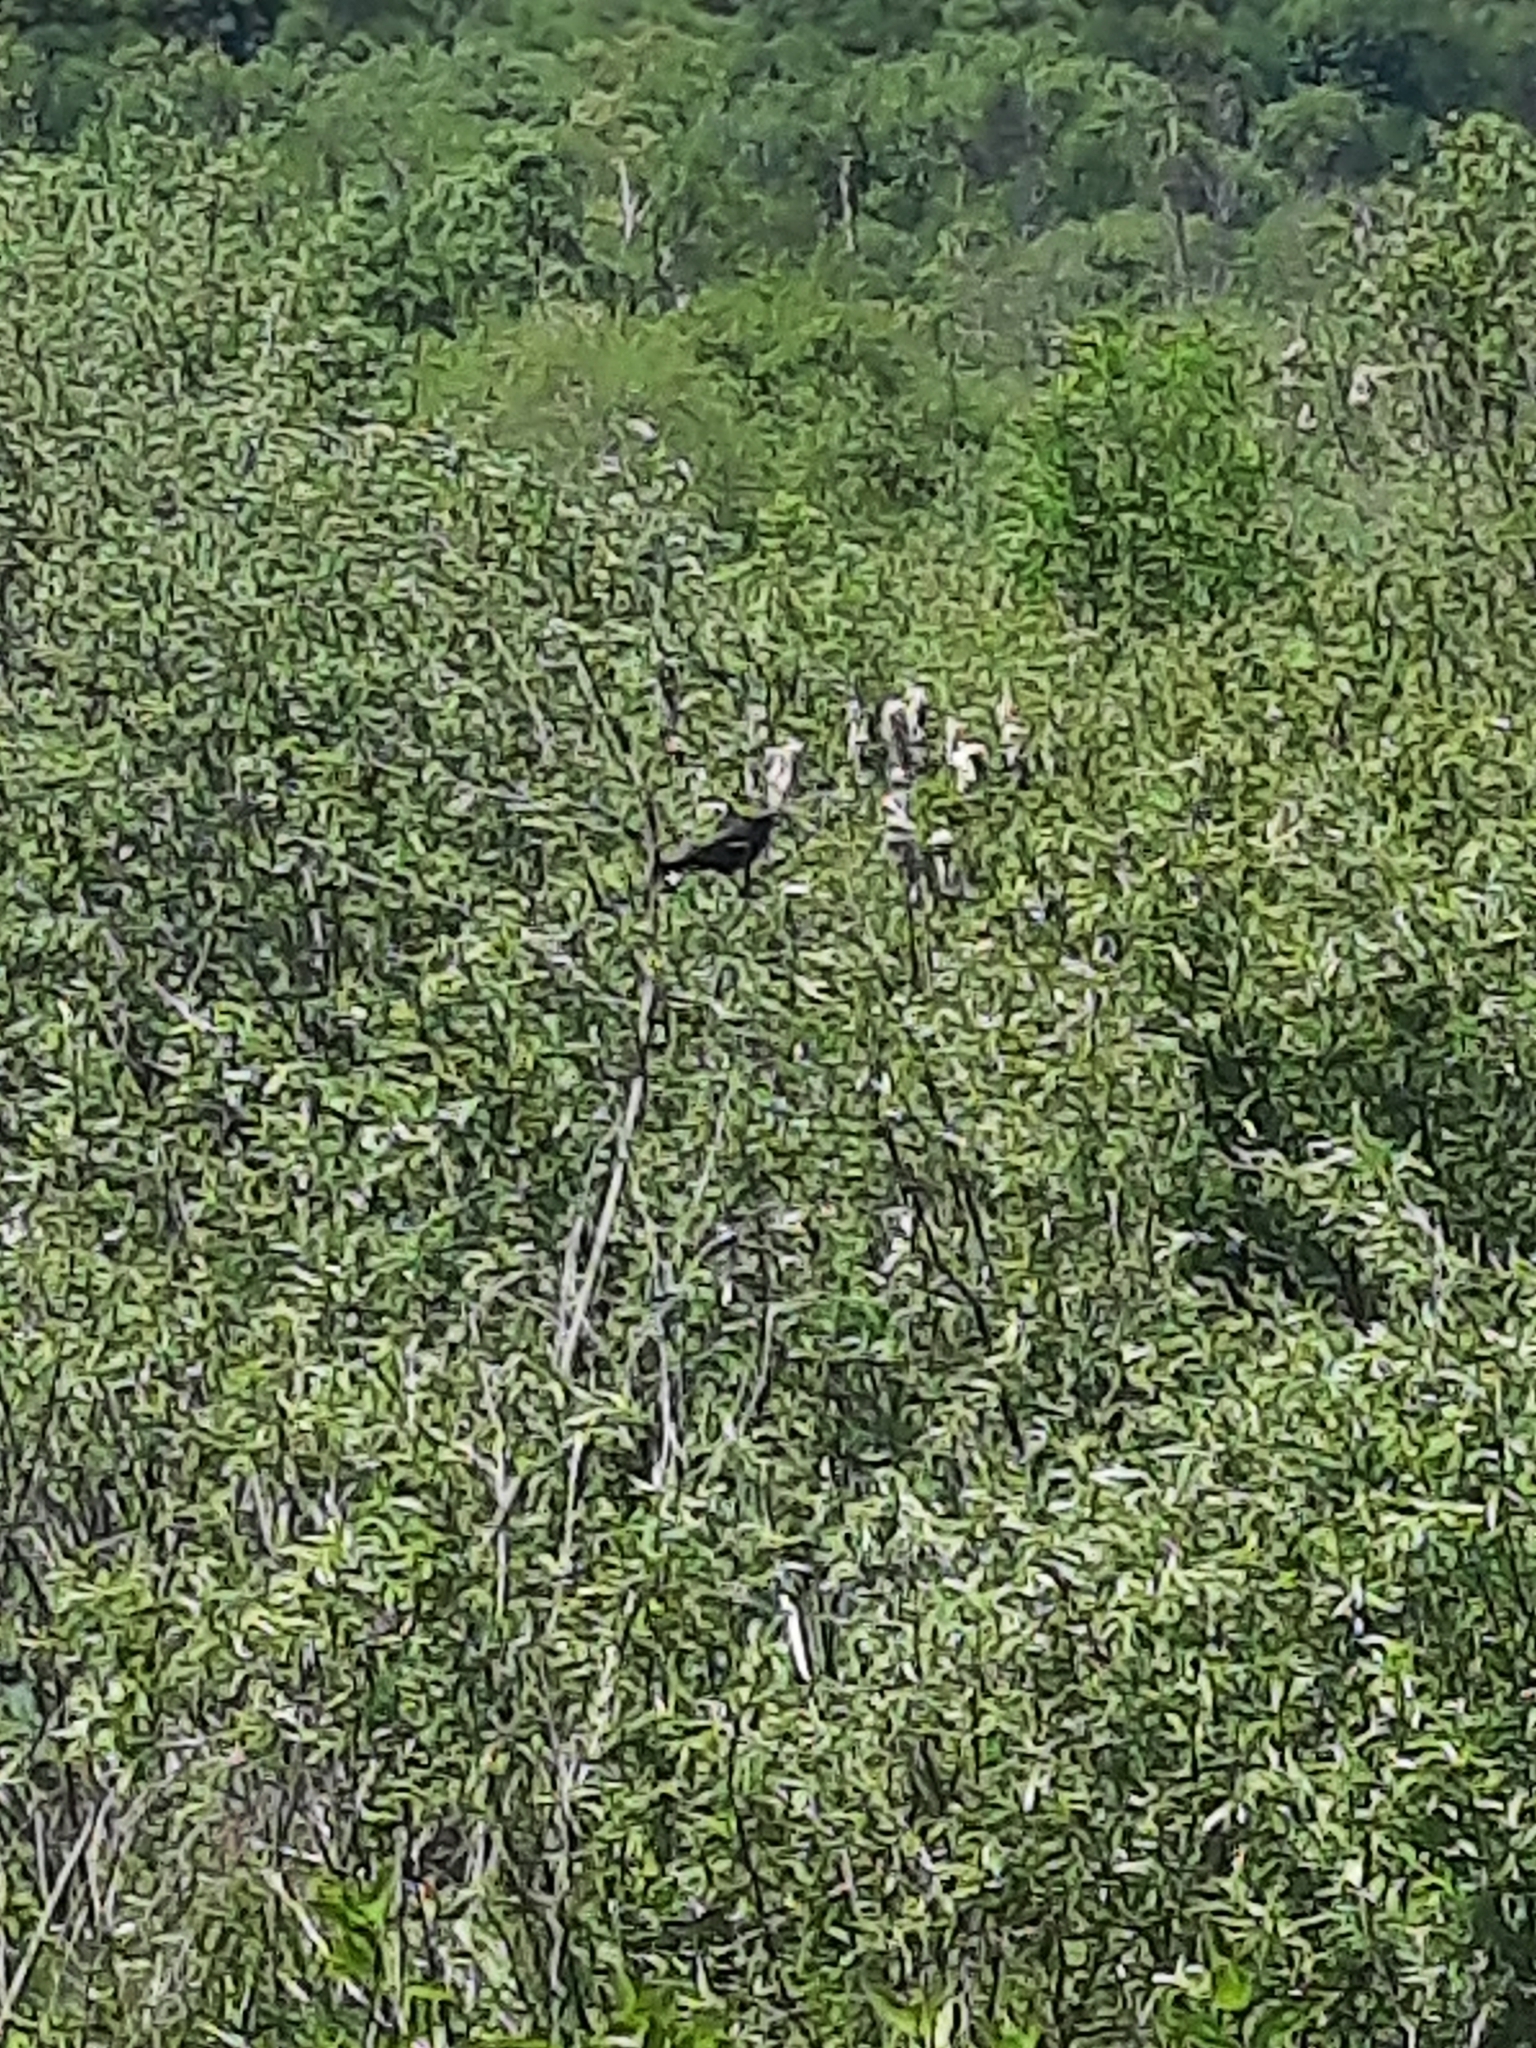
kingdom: Animalia
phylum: Chordata
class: Aves
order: Passeriformes
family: Icteridae
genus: Agelaius
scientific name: Agelaius phoeniceus
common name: Red-winged blackbird
